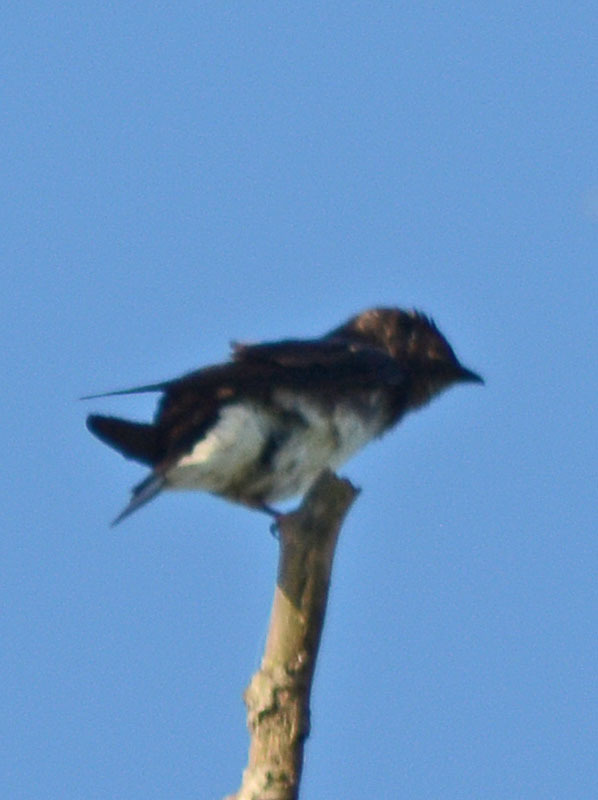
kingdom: Animalia
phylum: Chordata
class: Aves
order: Passeriformes
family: Hirundinidae
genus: Progne
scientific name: Progne chalybea
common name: Grey-breasted martin
